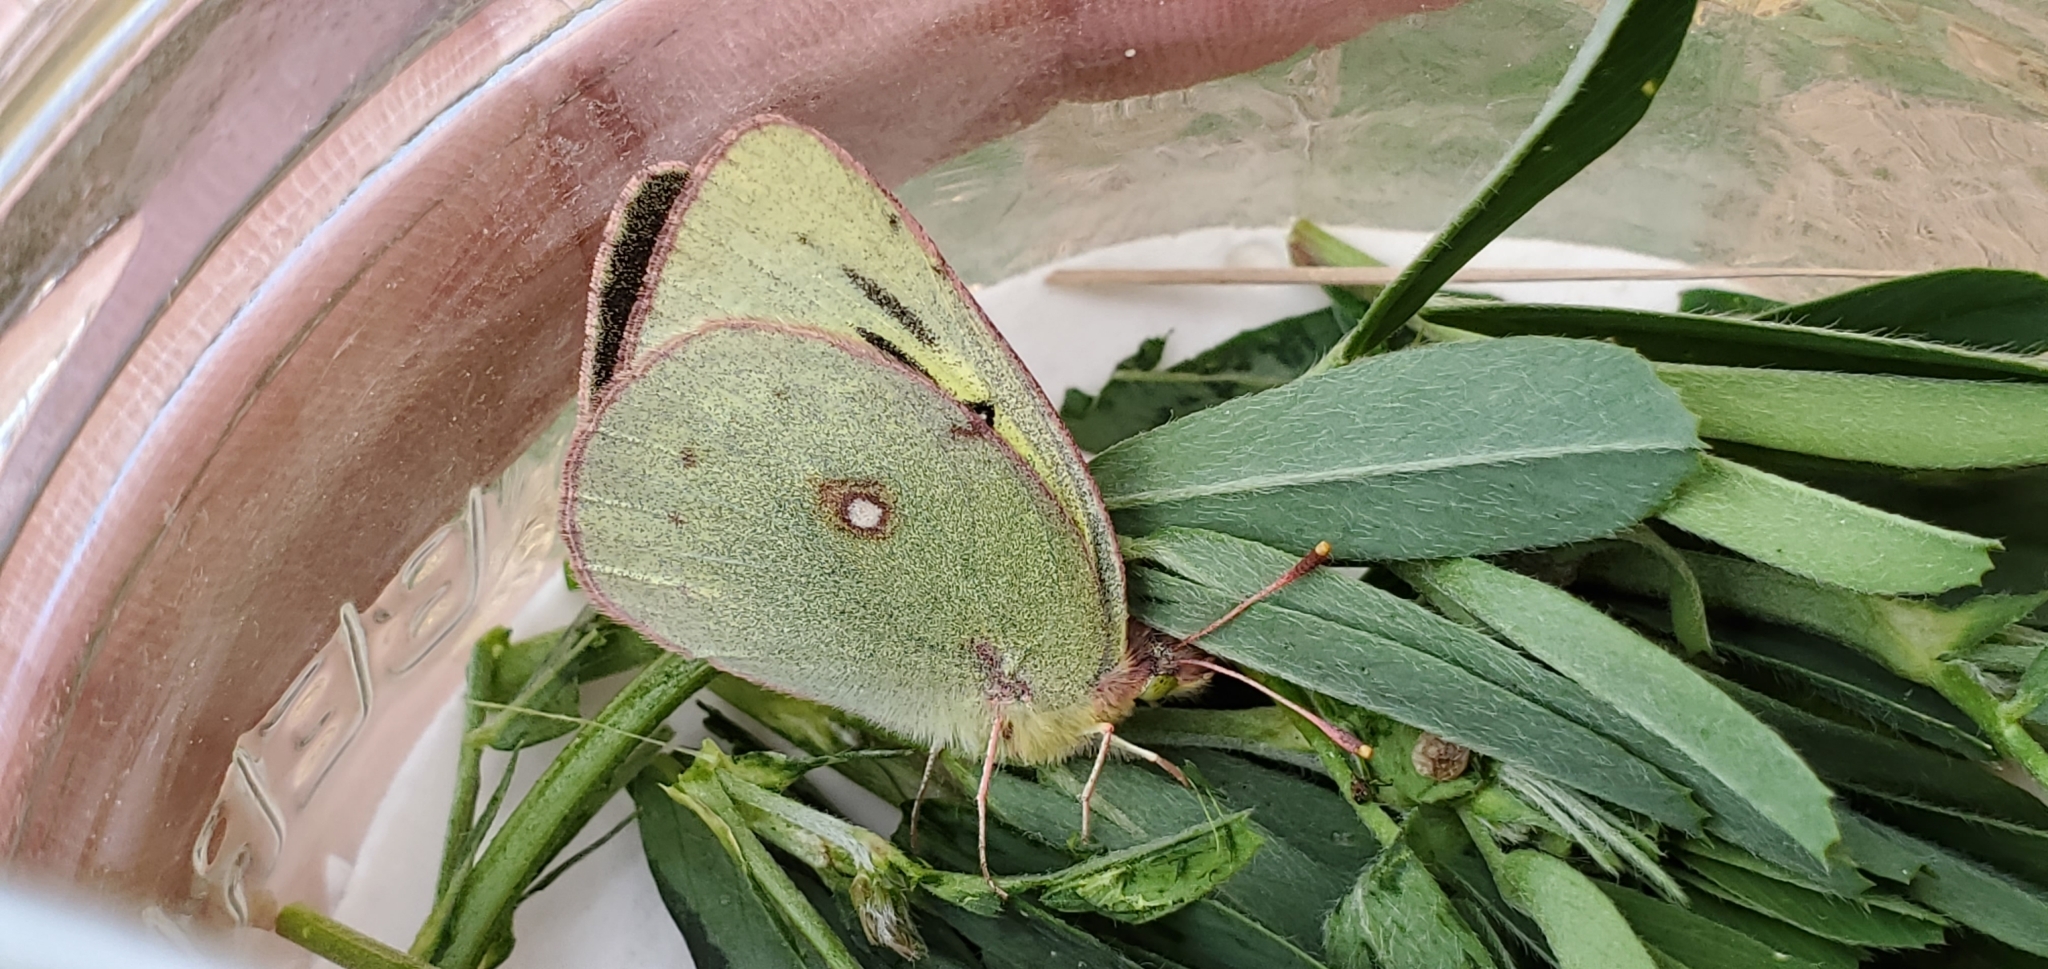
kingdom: Animalia
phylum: Arthropoda
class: Insecta
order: Lepidoptera
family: Pieridae
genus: Colias
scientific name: Colias philodice
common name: Clouded sulphur
